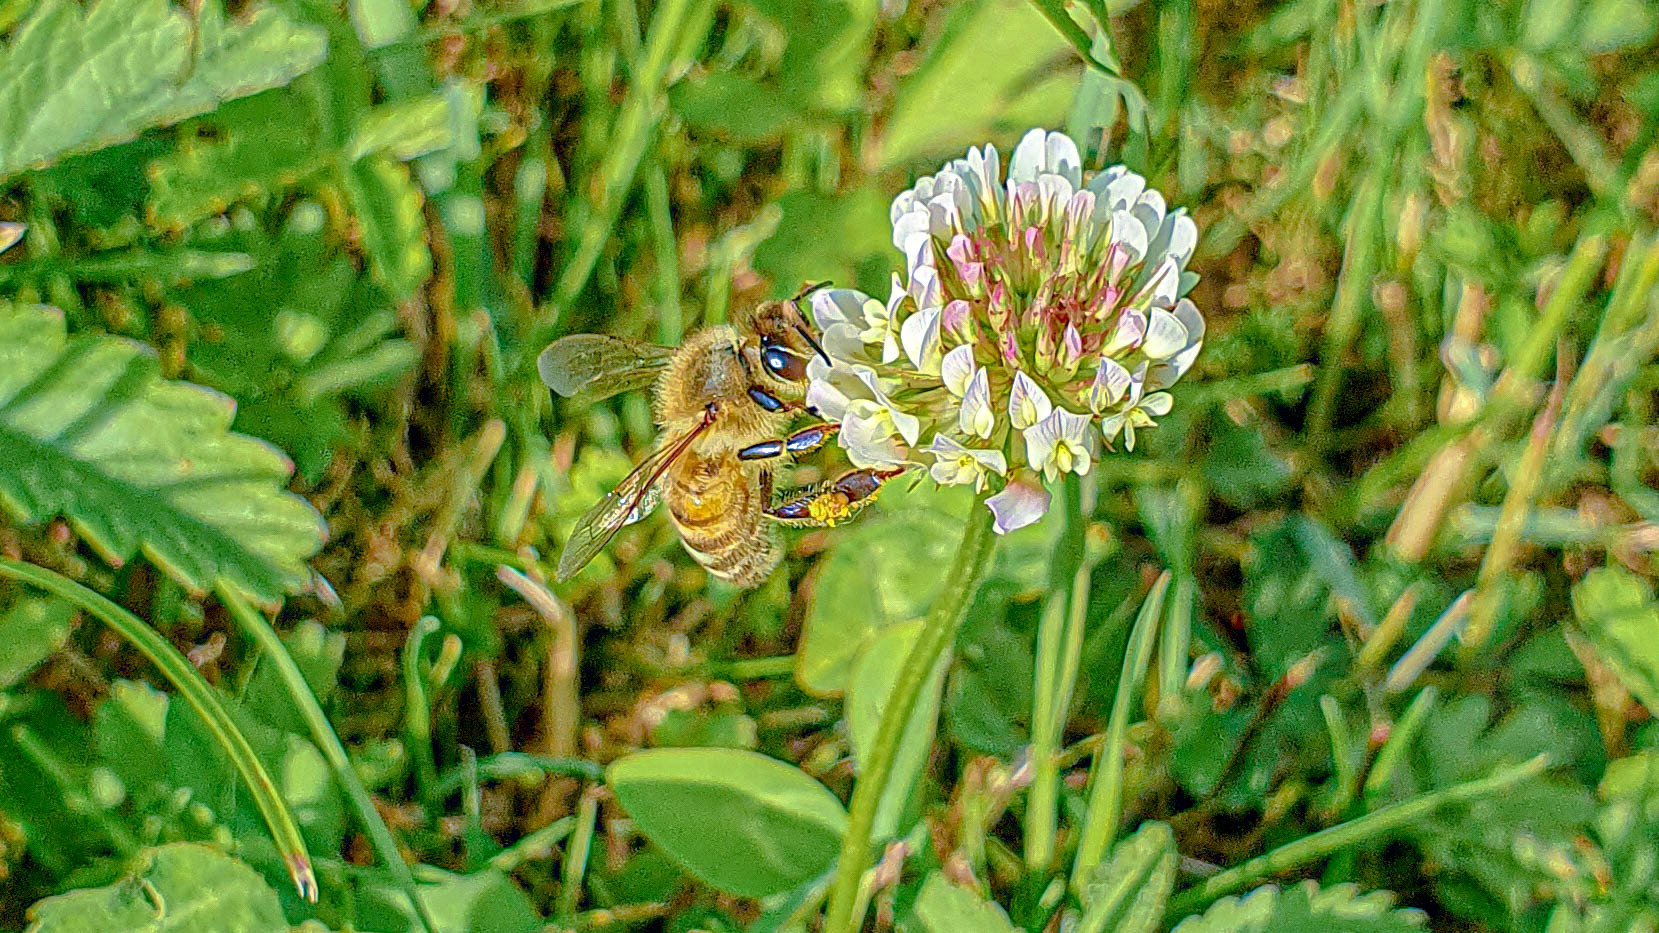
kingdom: Animalia
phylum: Arthropoda
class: Insecta
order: Hymenoptera
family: Apidae
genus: Apis
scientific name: Apis mellifera
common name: Honey bee
